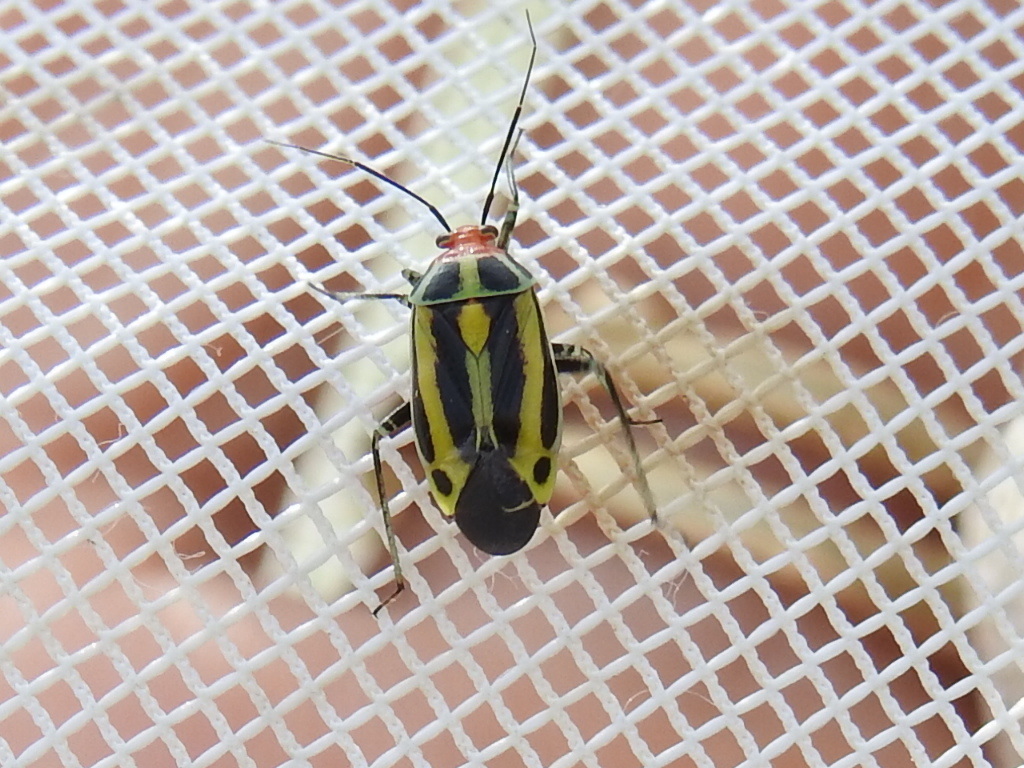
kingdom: Animalia
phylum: Arthropoda
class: Insecta
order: Hemiptera
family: Miridae
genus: Poecilocapsus
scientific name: Poecilocapsus lineatus
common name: Four-lined plant bug
